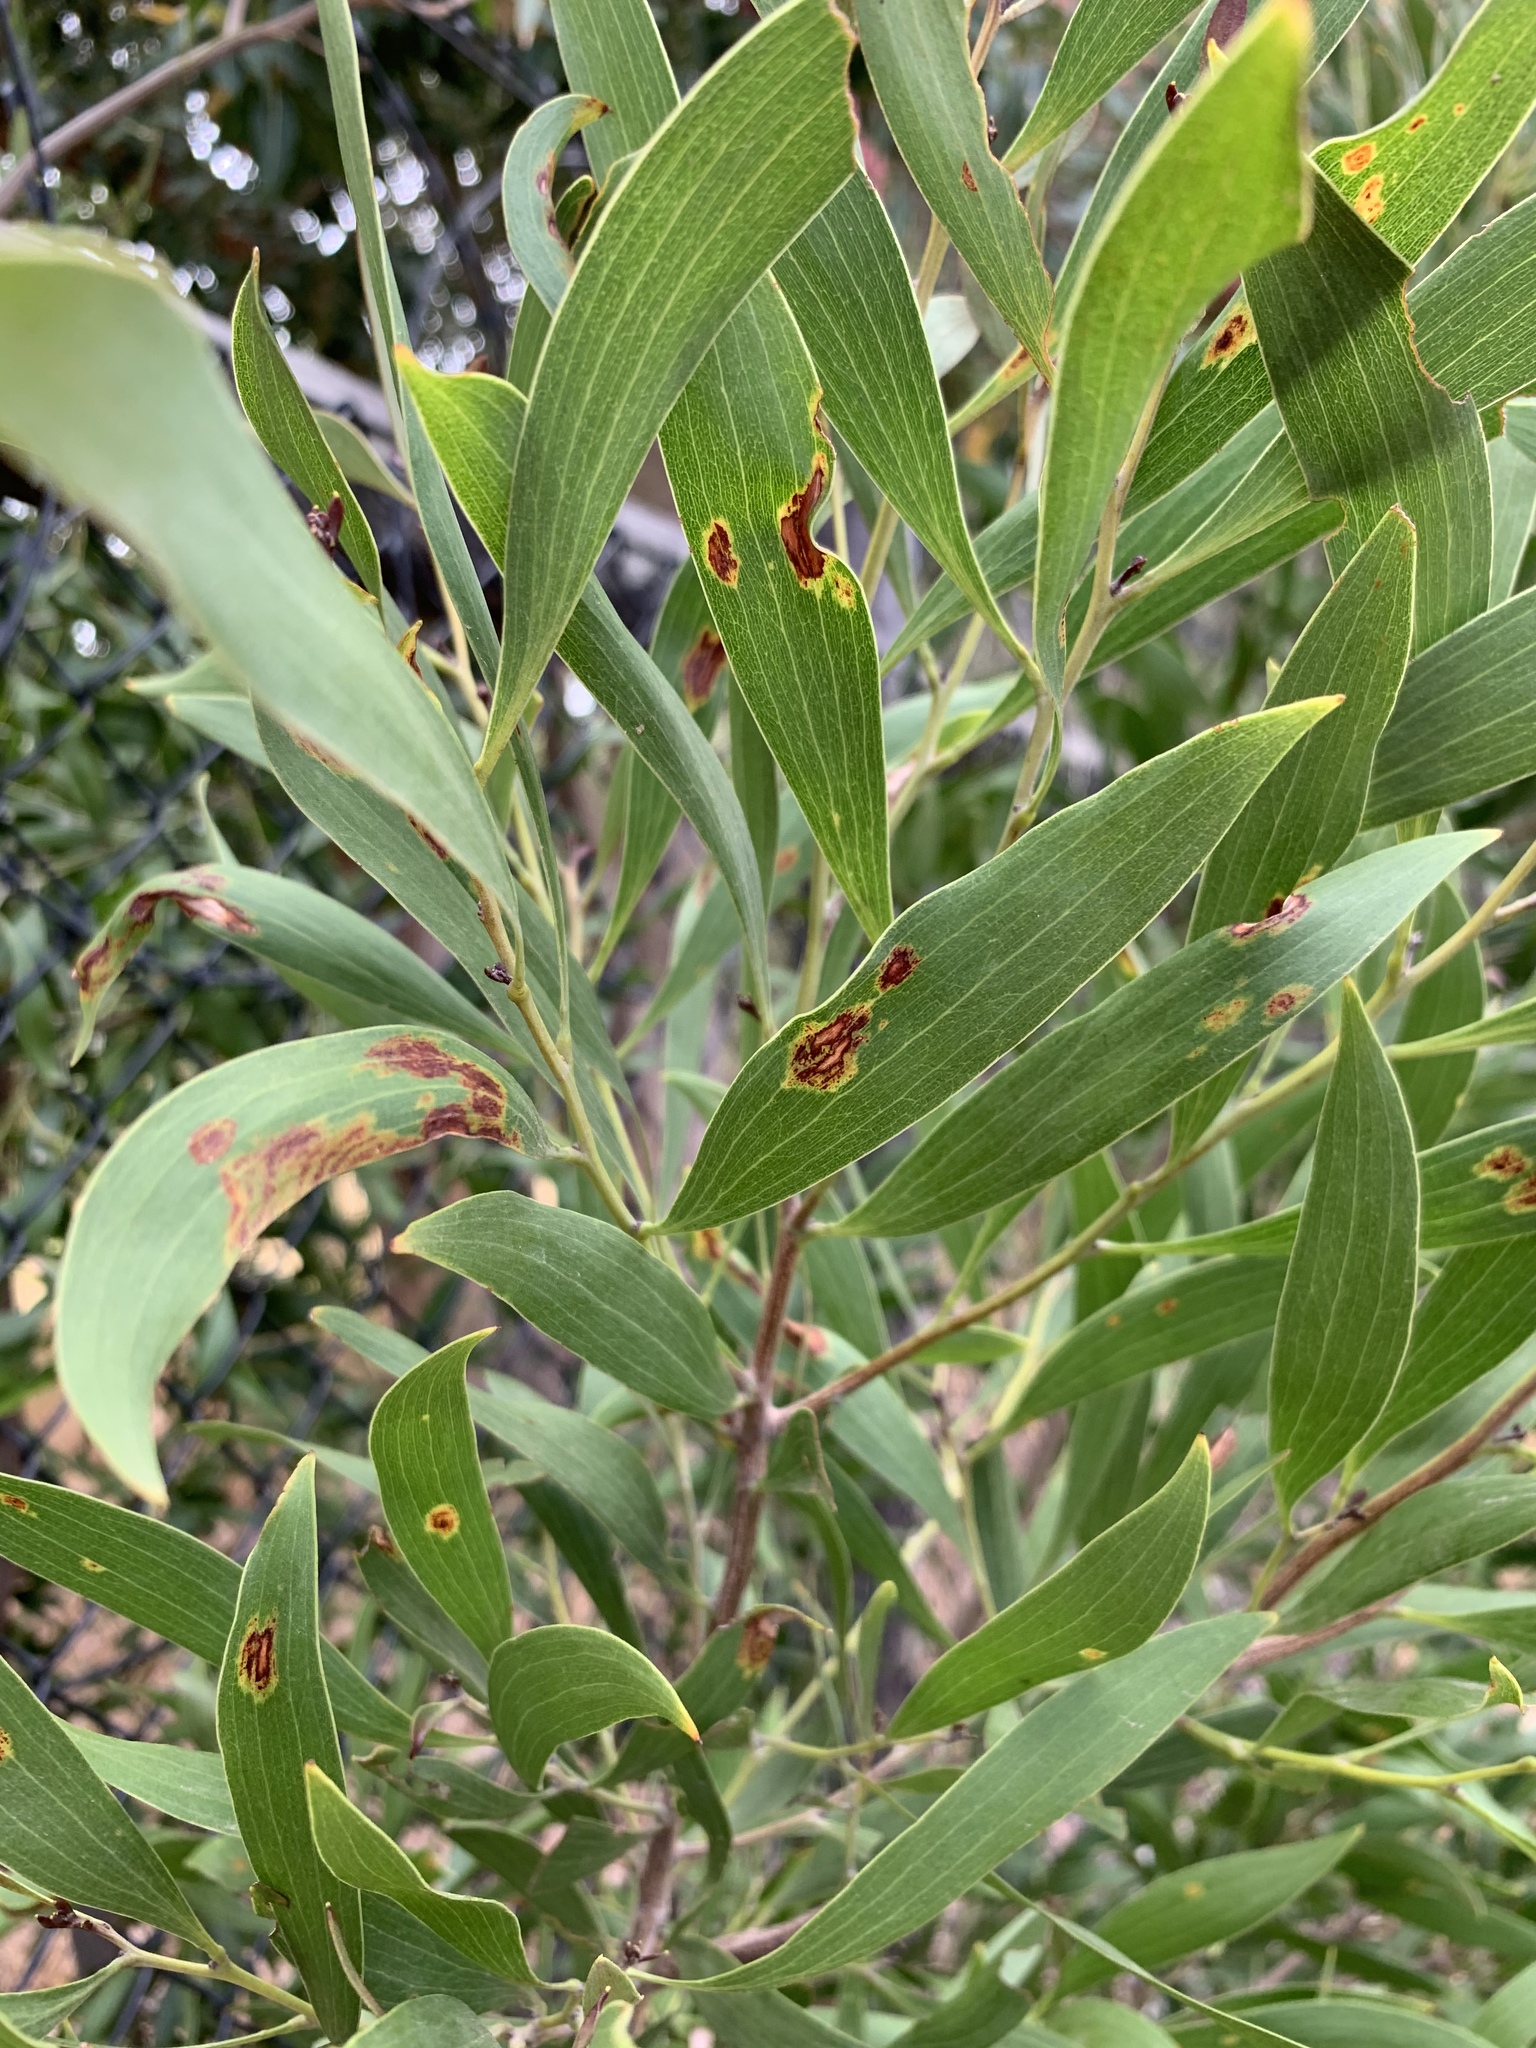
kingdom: Plantae
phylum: Tracheophyta
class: Magnoliopsida
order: Fabales
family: Fabaceae
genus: Acacia
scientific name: Acacia melanoxylon
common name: Blackwood
